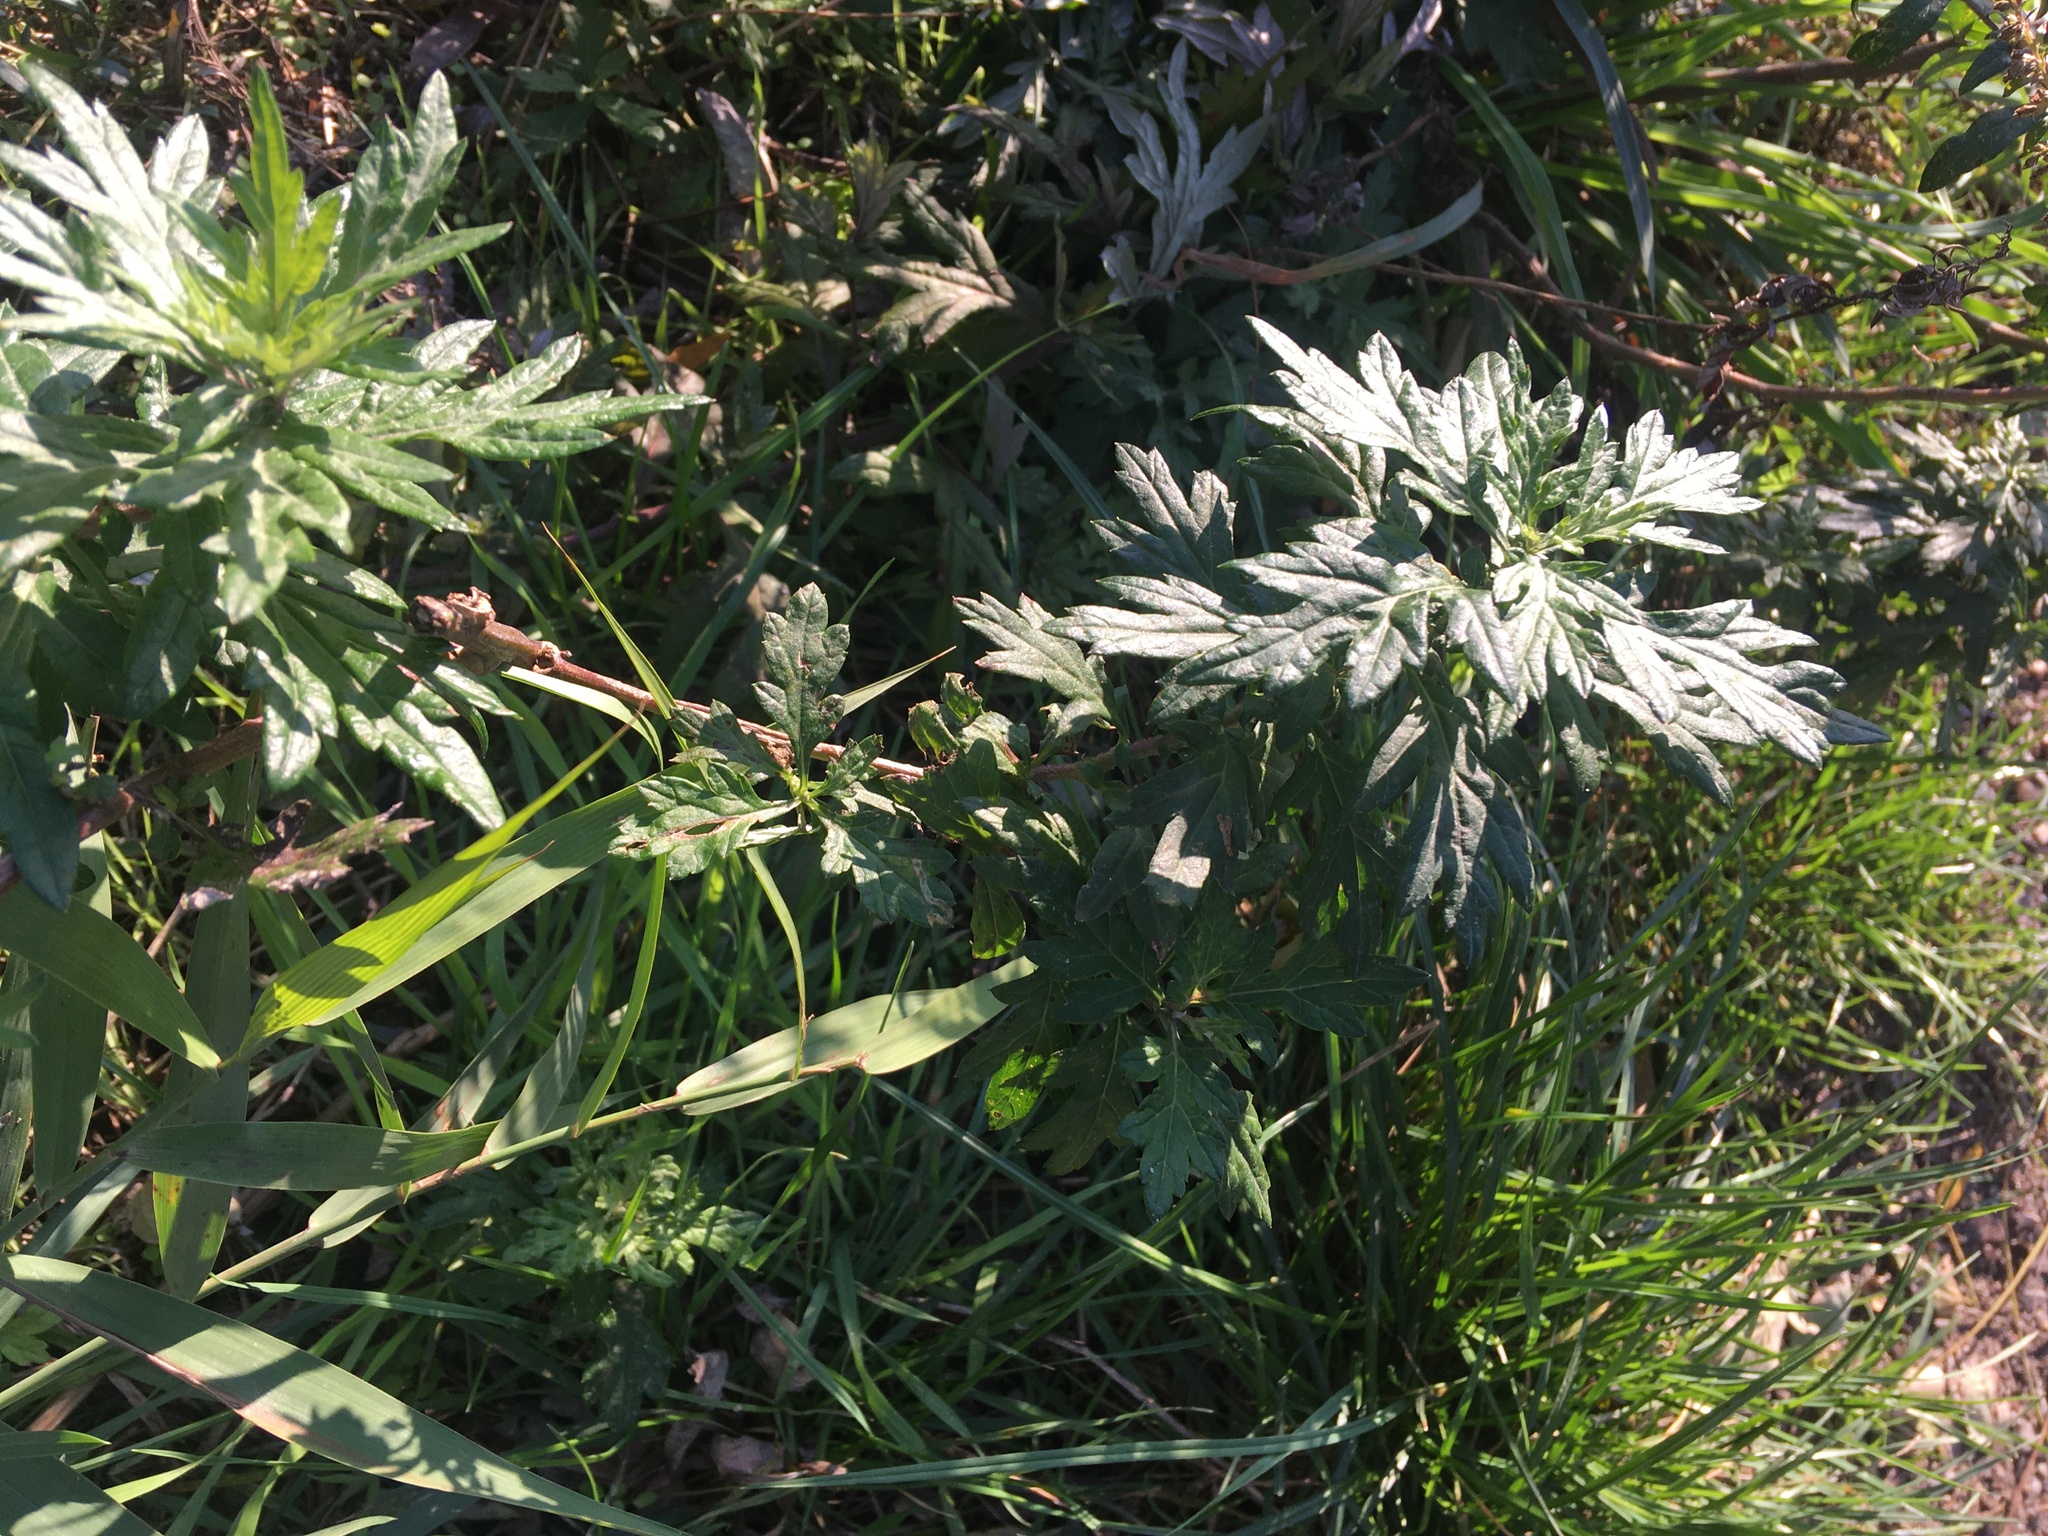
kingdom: Plantae
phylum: Tracheophyta
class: Magnoliopsida
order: Asterales
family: Asteraceae
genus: Artemisia
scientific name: Artemisia vulgaris
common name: Mugwort
